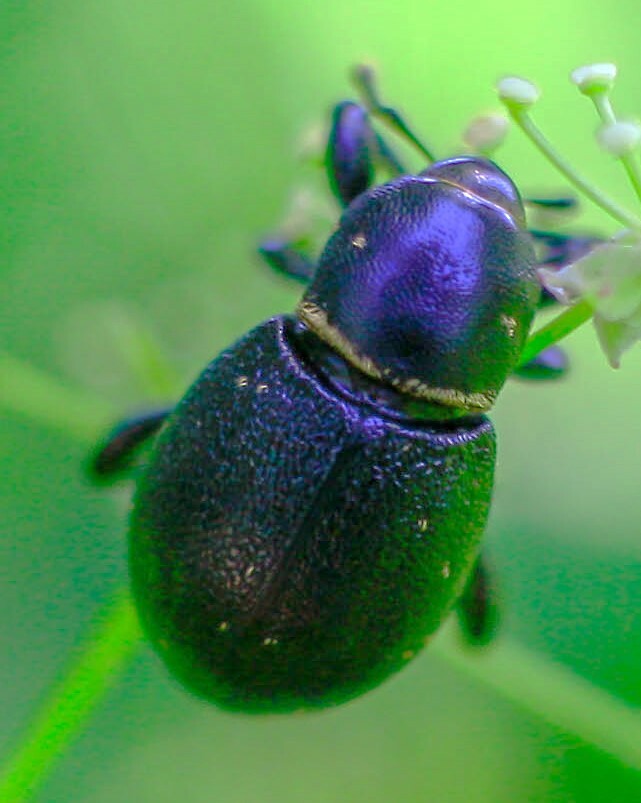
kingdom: Animalia
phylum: Arthropoda
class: Insecta
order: Coleoptera
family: Curculionidae
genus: Liparus
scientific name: Liparus coronatus
